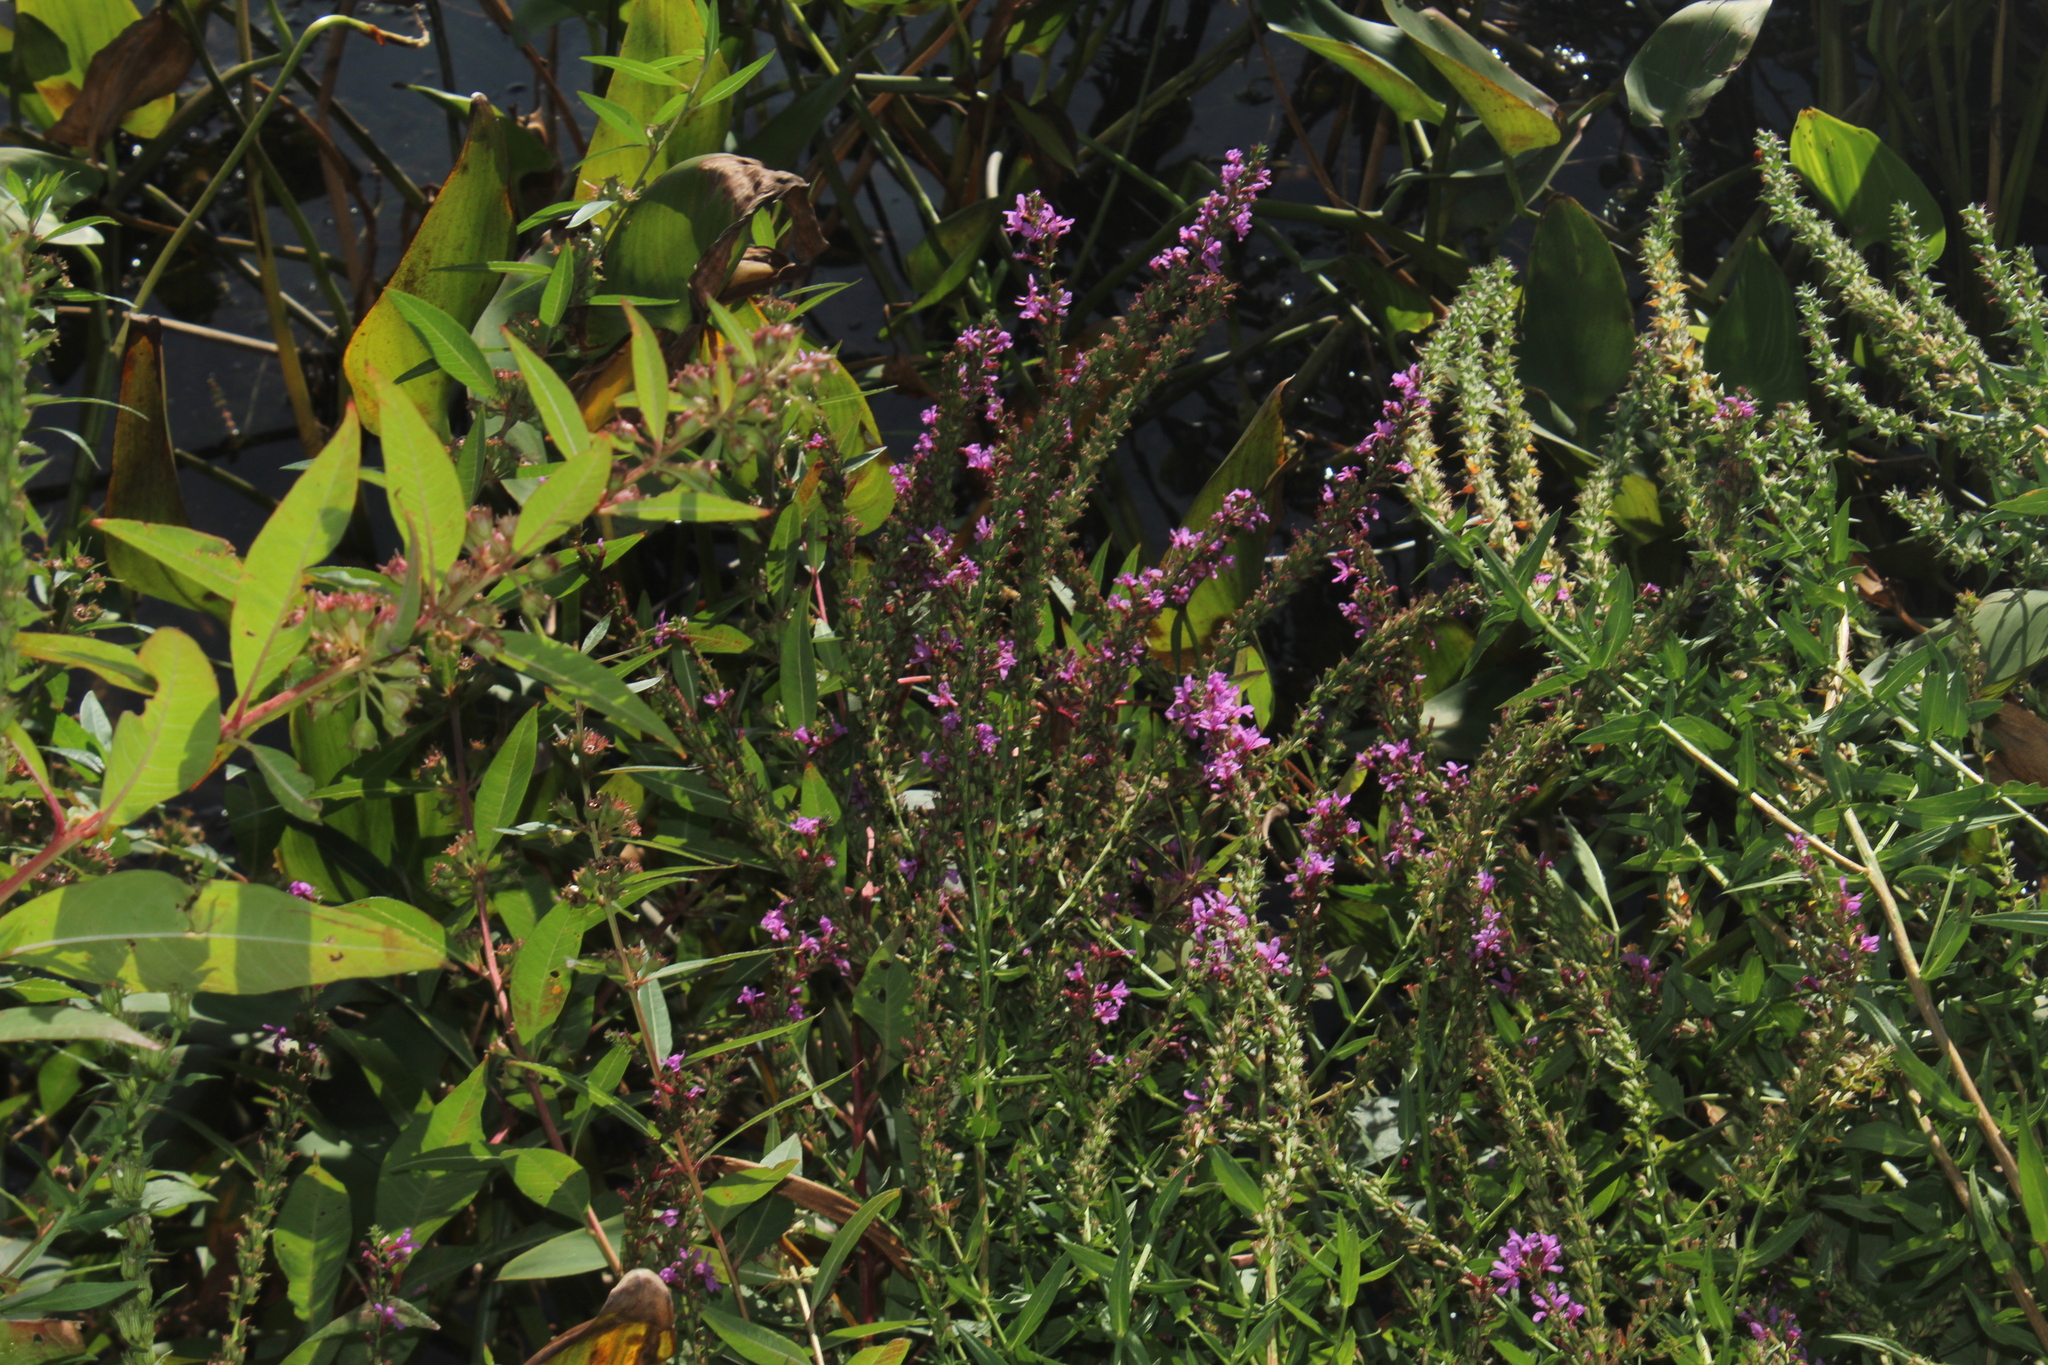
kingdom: Plantae
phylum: Tracheophyta
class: Magnoliopsida
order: Myrtales
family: Lythraceae
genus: Lythrum
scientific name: Lythrum salicaria
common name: Purple loosestrife
